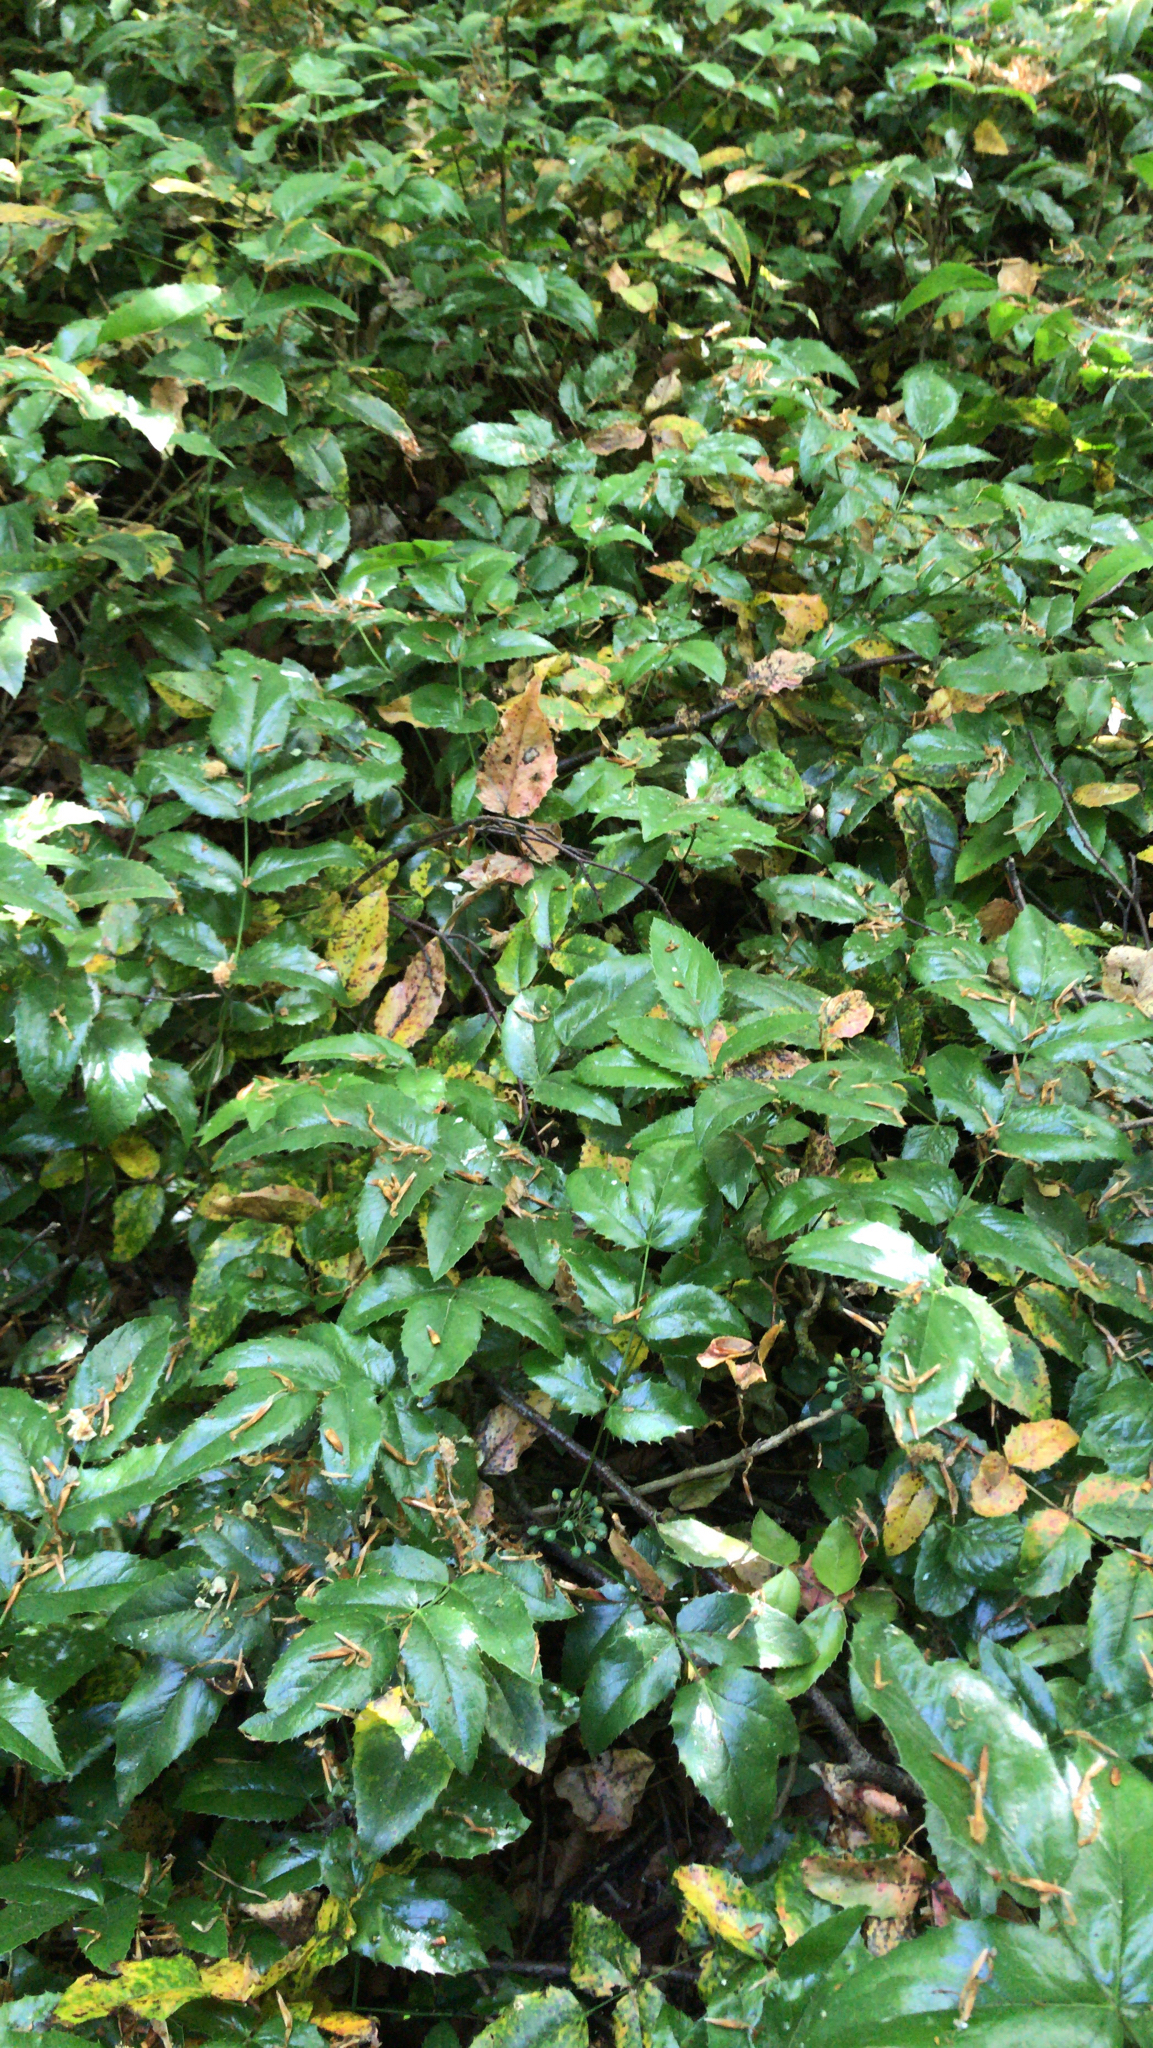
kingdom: Plantae
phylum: Tracheophyta
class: Magnoliopsida
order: Ranunculales
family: Berberidaceae
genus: Mahonia
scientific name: Mahonia aquifolium
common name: Oregon-grape
